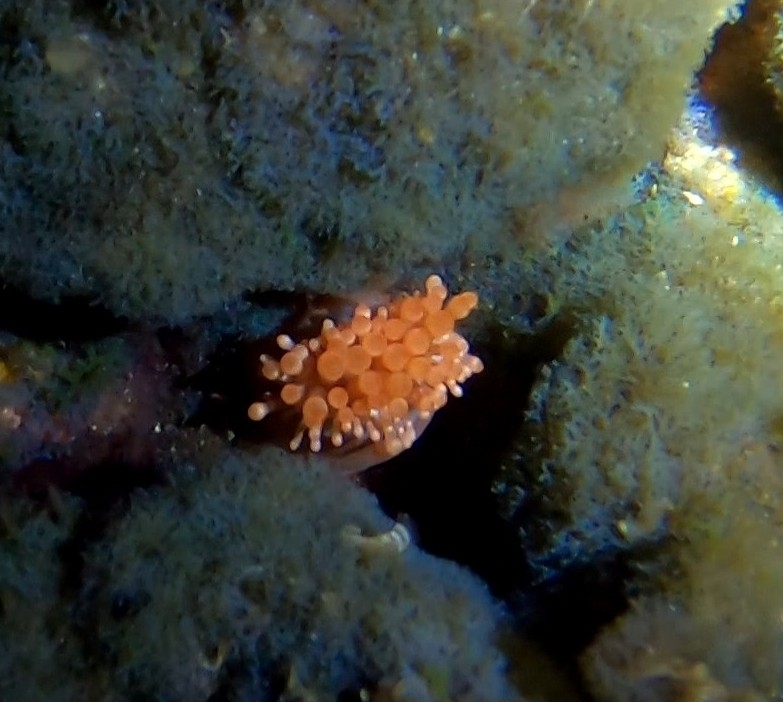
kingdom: Animalia
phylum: Cnidaria
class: Anthozoa
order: Actiniaria
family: Andvakiidae
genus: Telmatactis
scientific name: Telmatactis cricoides
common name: Blunt-tentacled anemone
